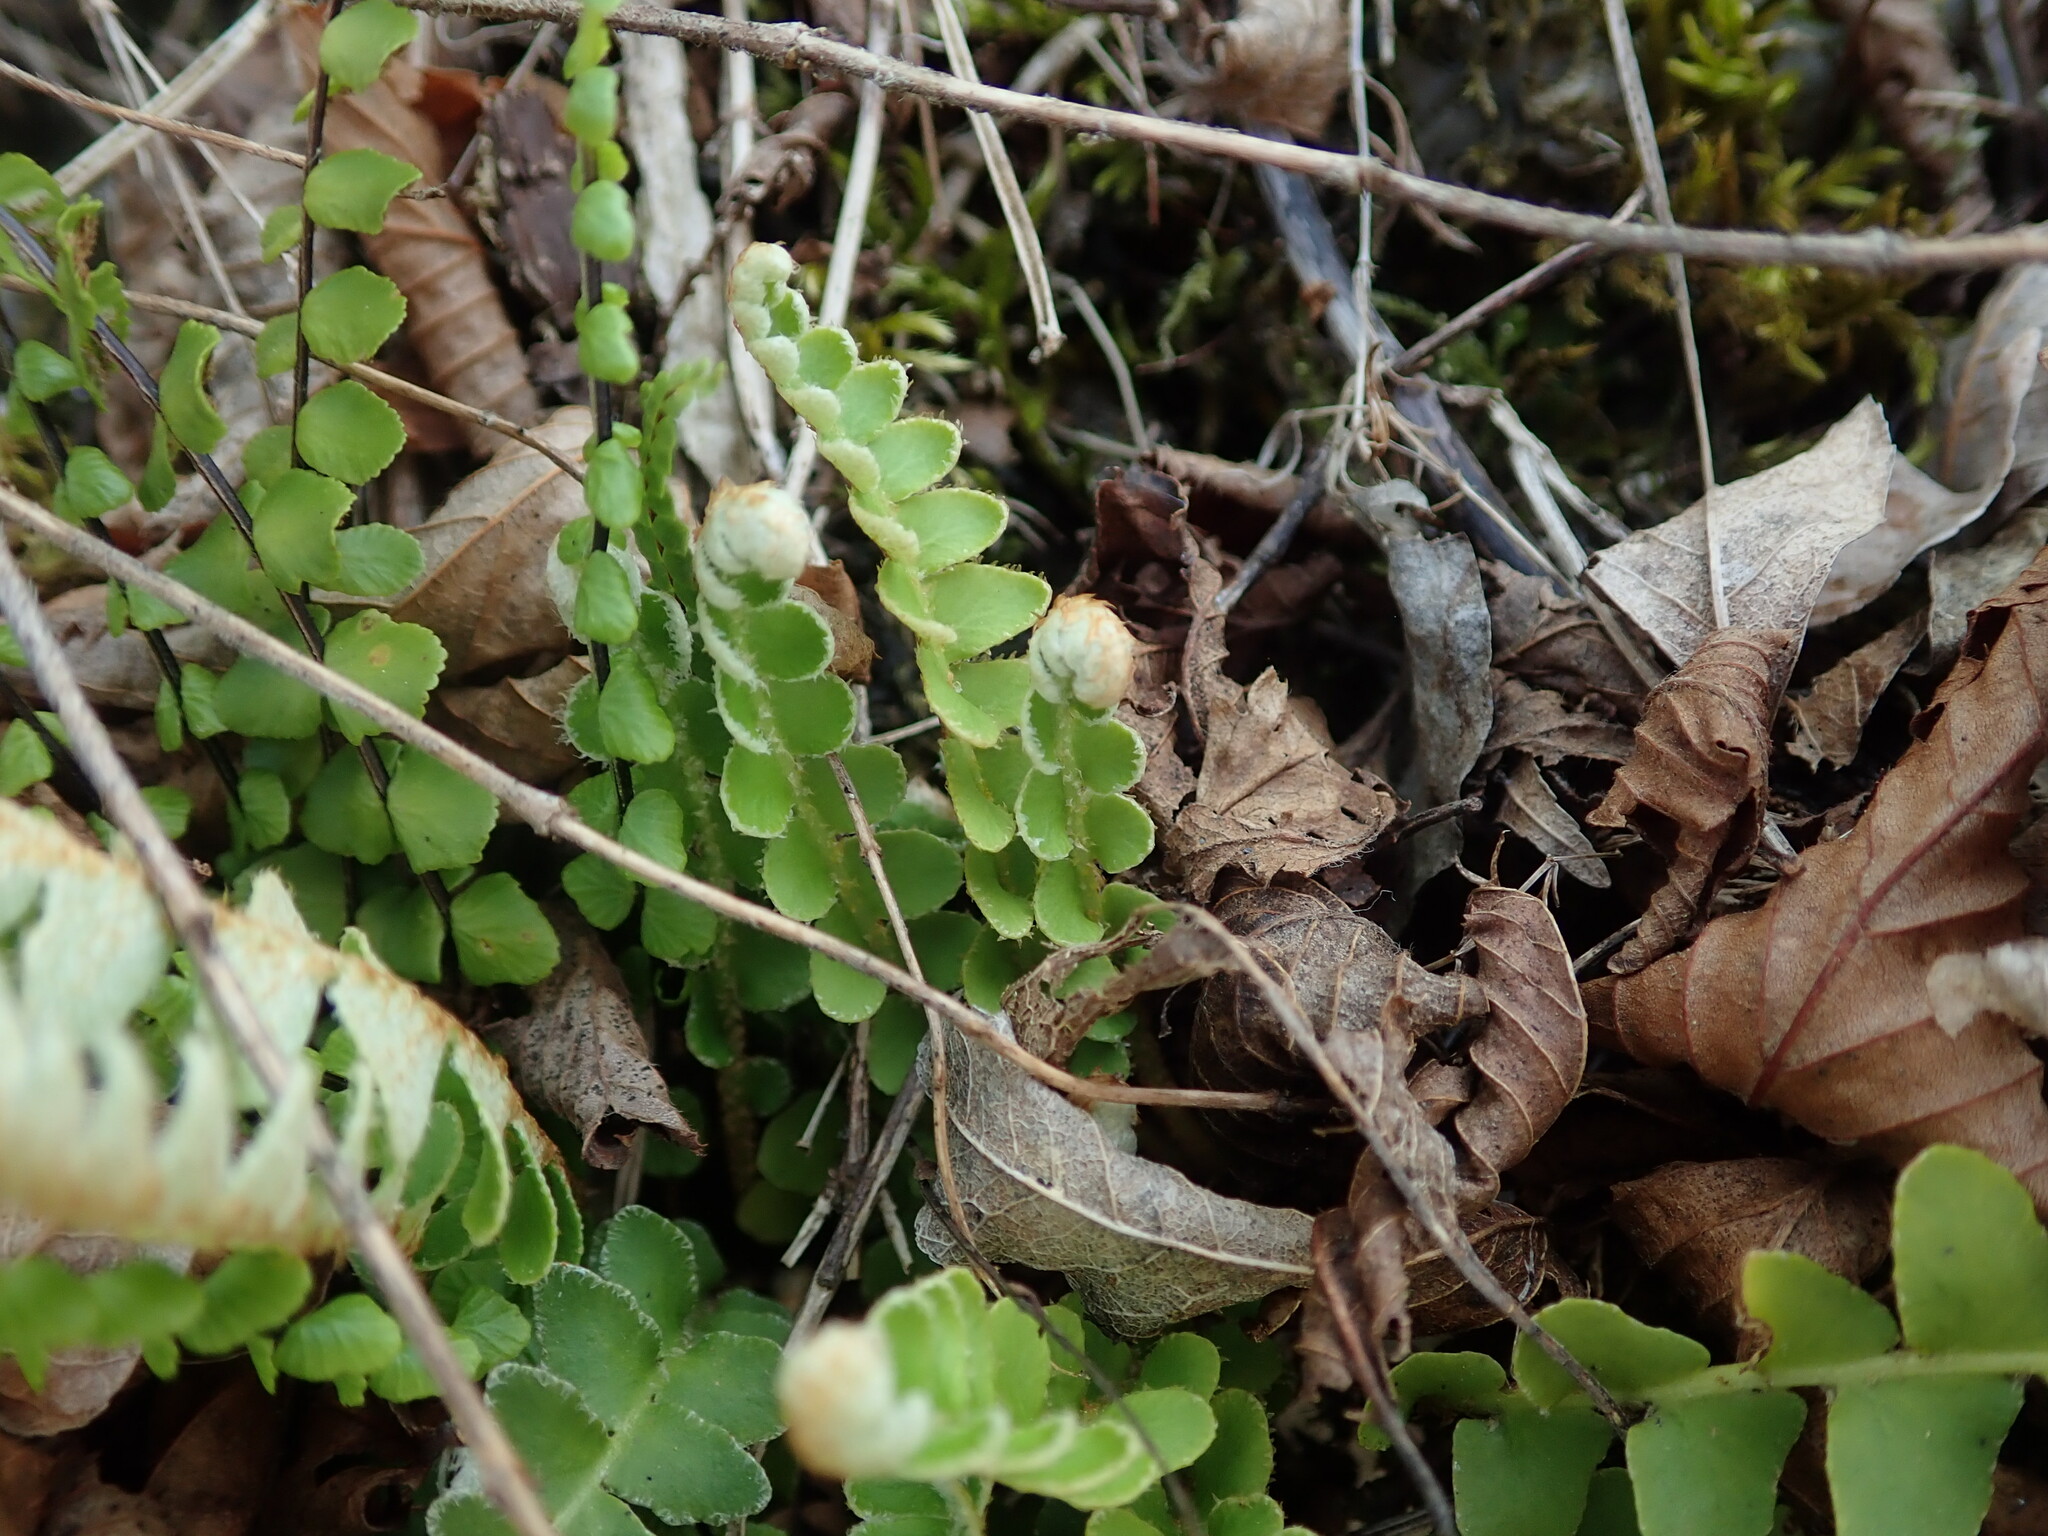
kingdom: Plantae
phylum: Tracheophyta
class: Polypodiopsida
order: Polypodiales
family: Aspleniaceae
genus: Asplenium
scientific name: Asplenium ceterach
